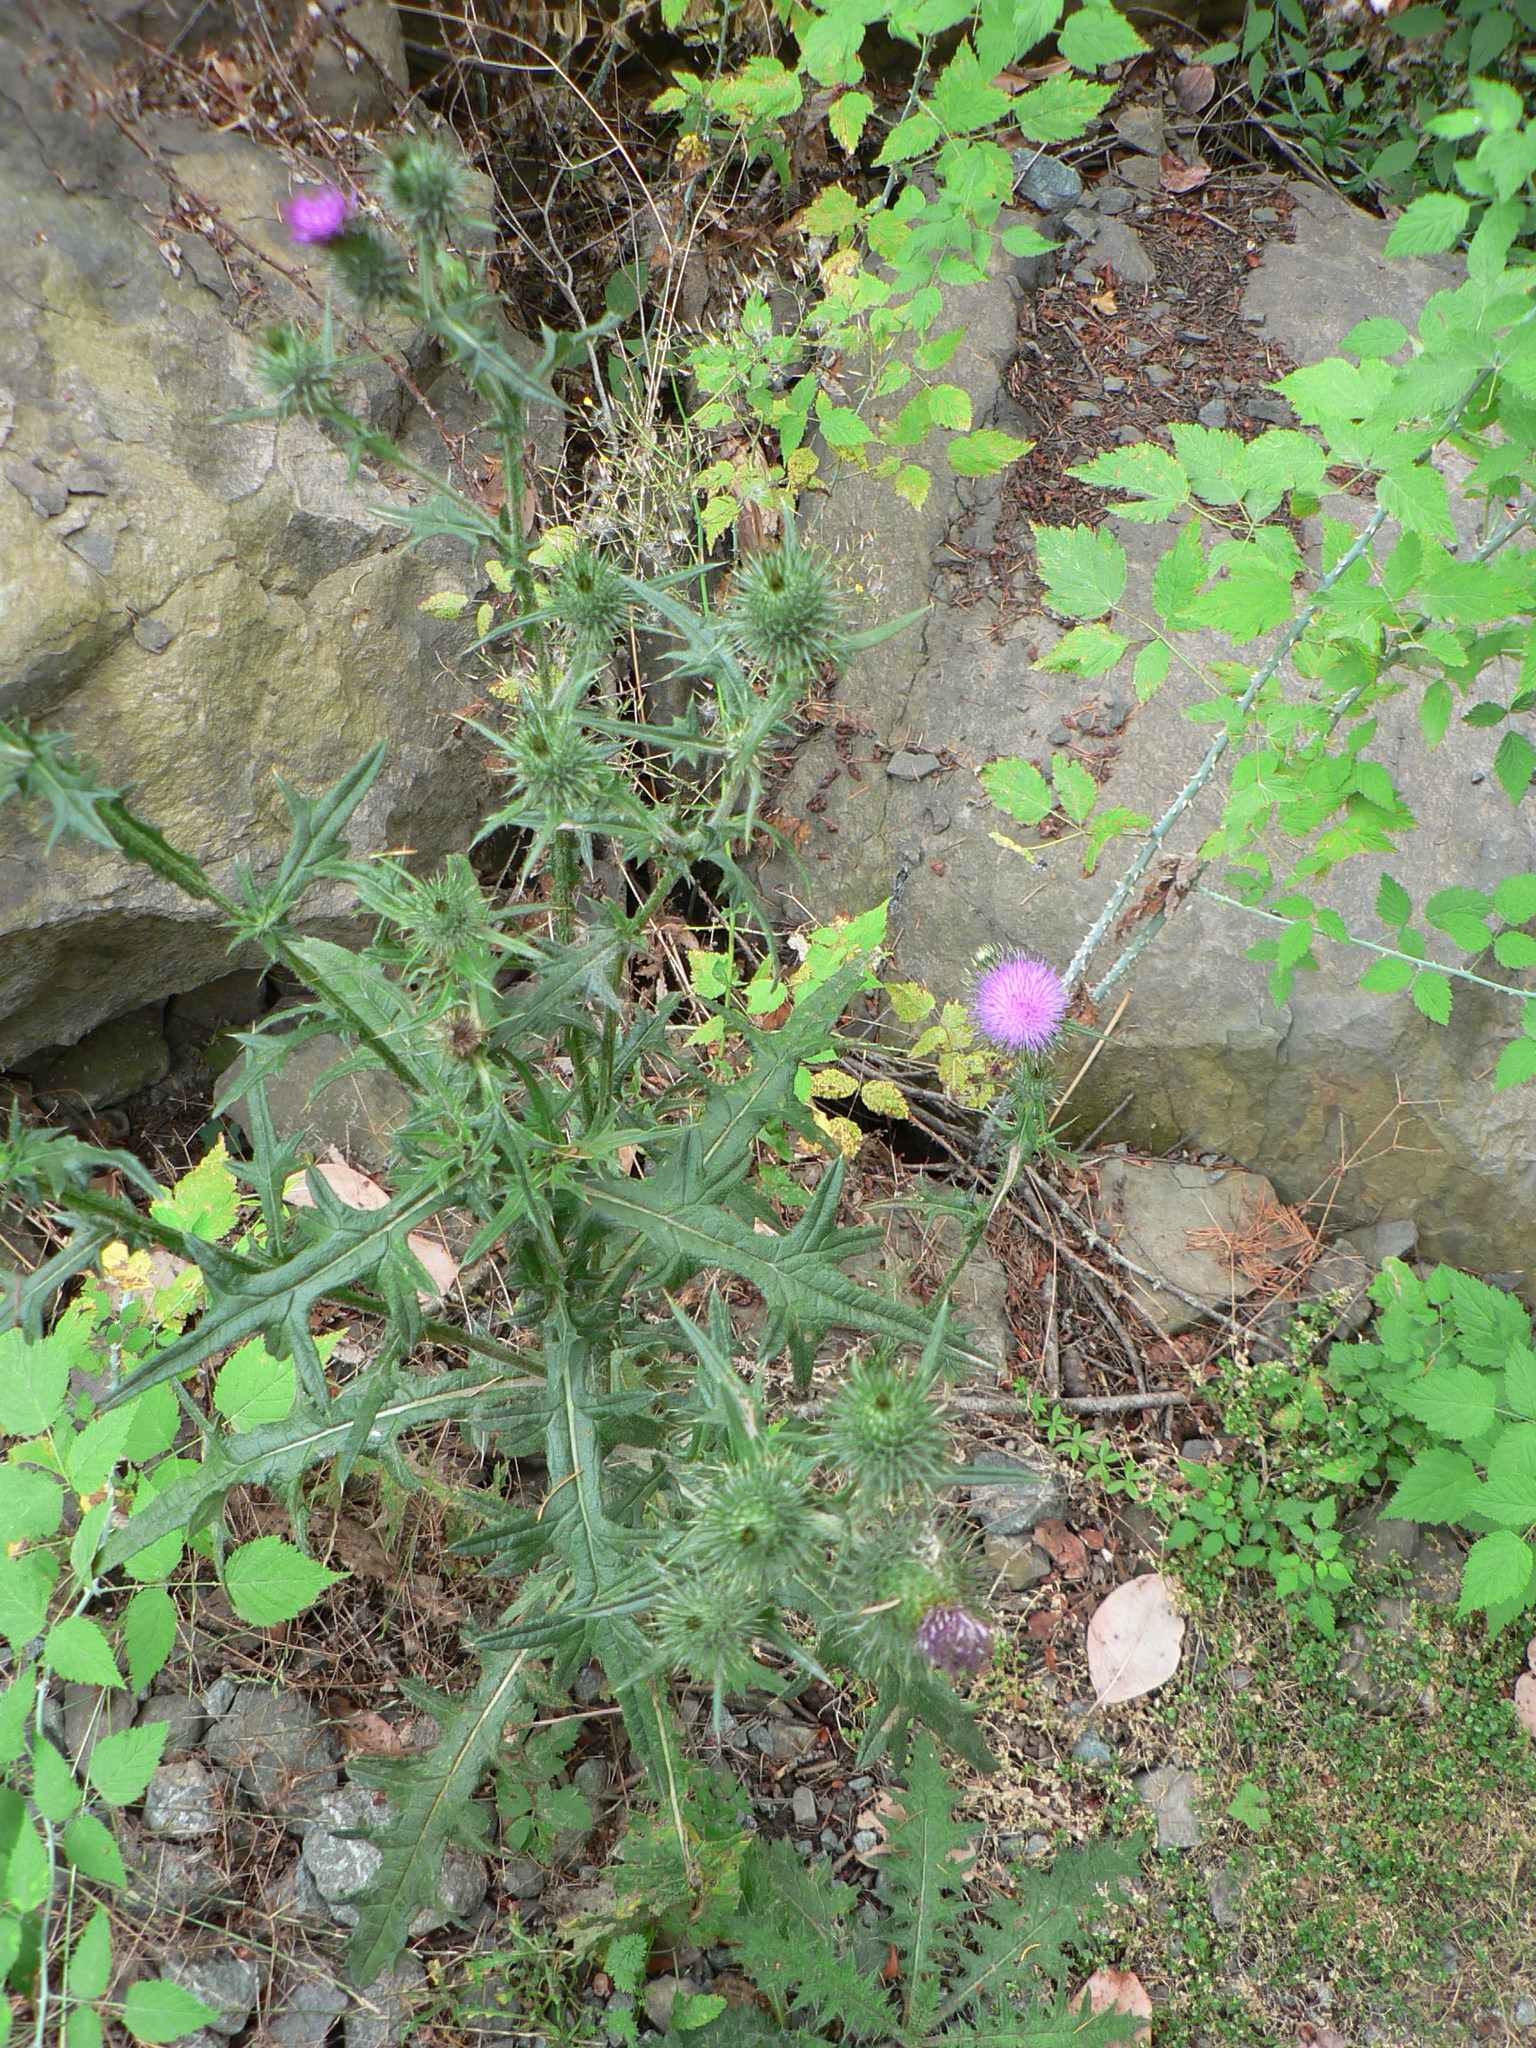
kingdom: Plantae
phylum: Tracheophyta
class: Magnoliopsida
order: Asterales
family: Asteraceae
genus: Cirsium
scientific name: Cirsium vulgare
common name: Bull thistle
